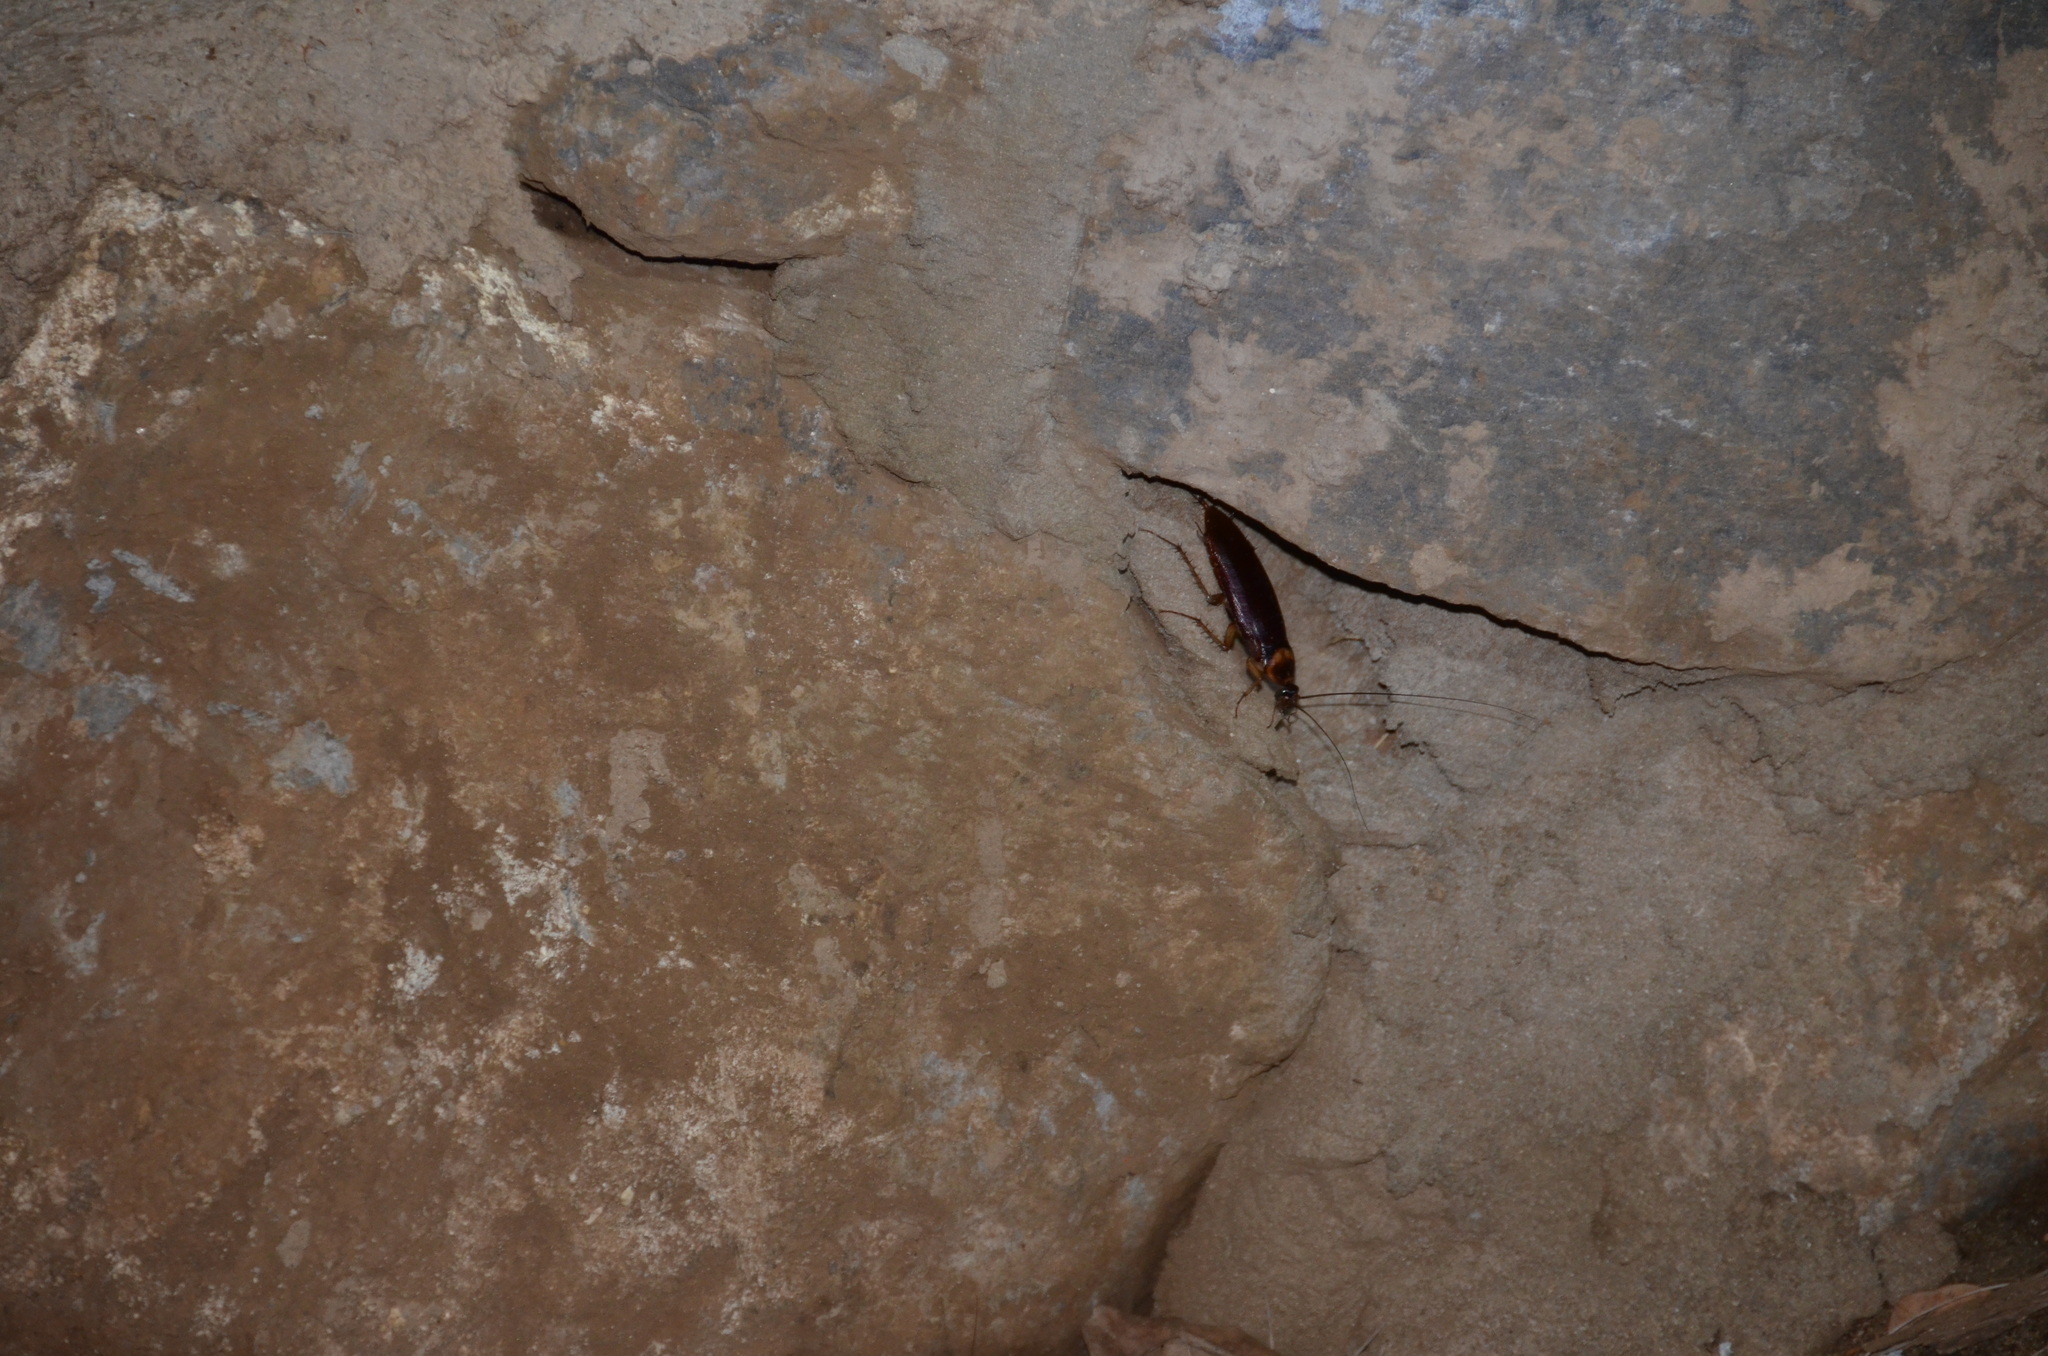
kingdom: Animalia
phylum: Arthropoda
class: Insecta
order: Blattodea
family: Blattidae
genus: Periplaneta
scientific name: Periplaneta americana
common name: American cockroach
